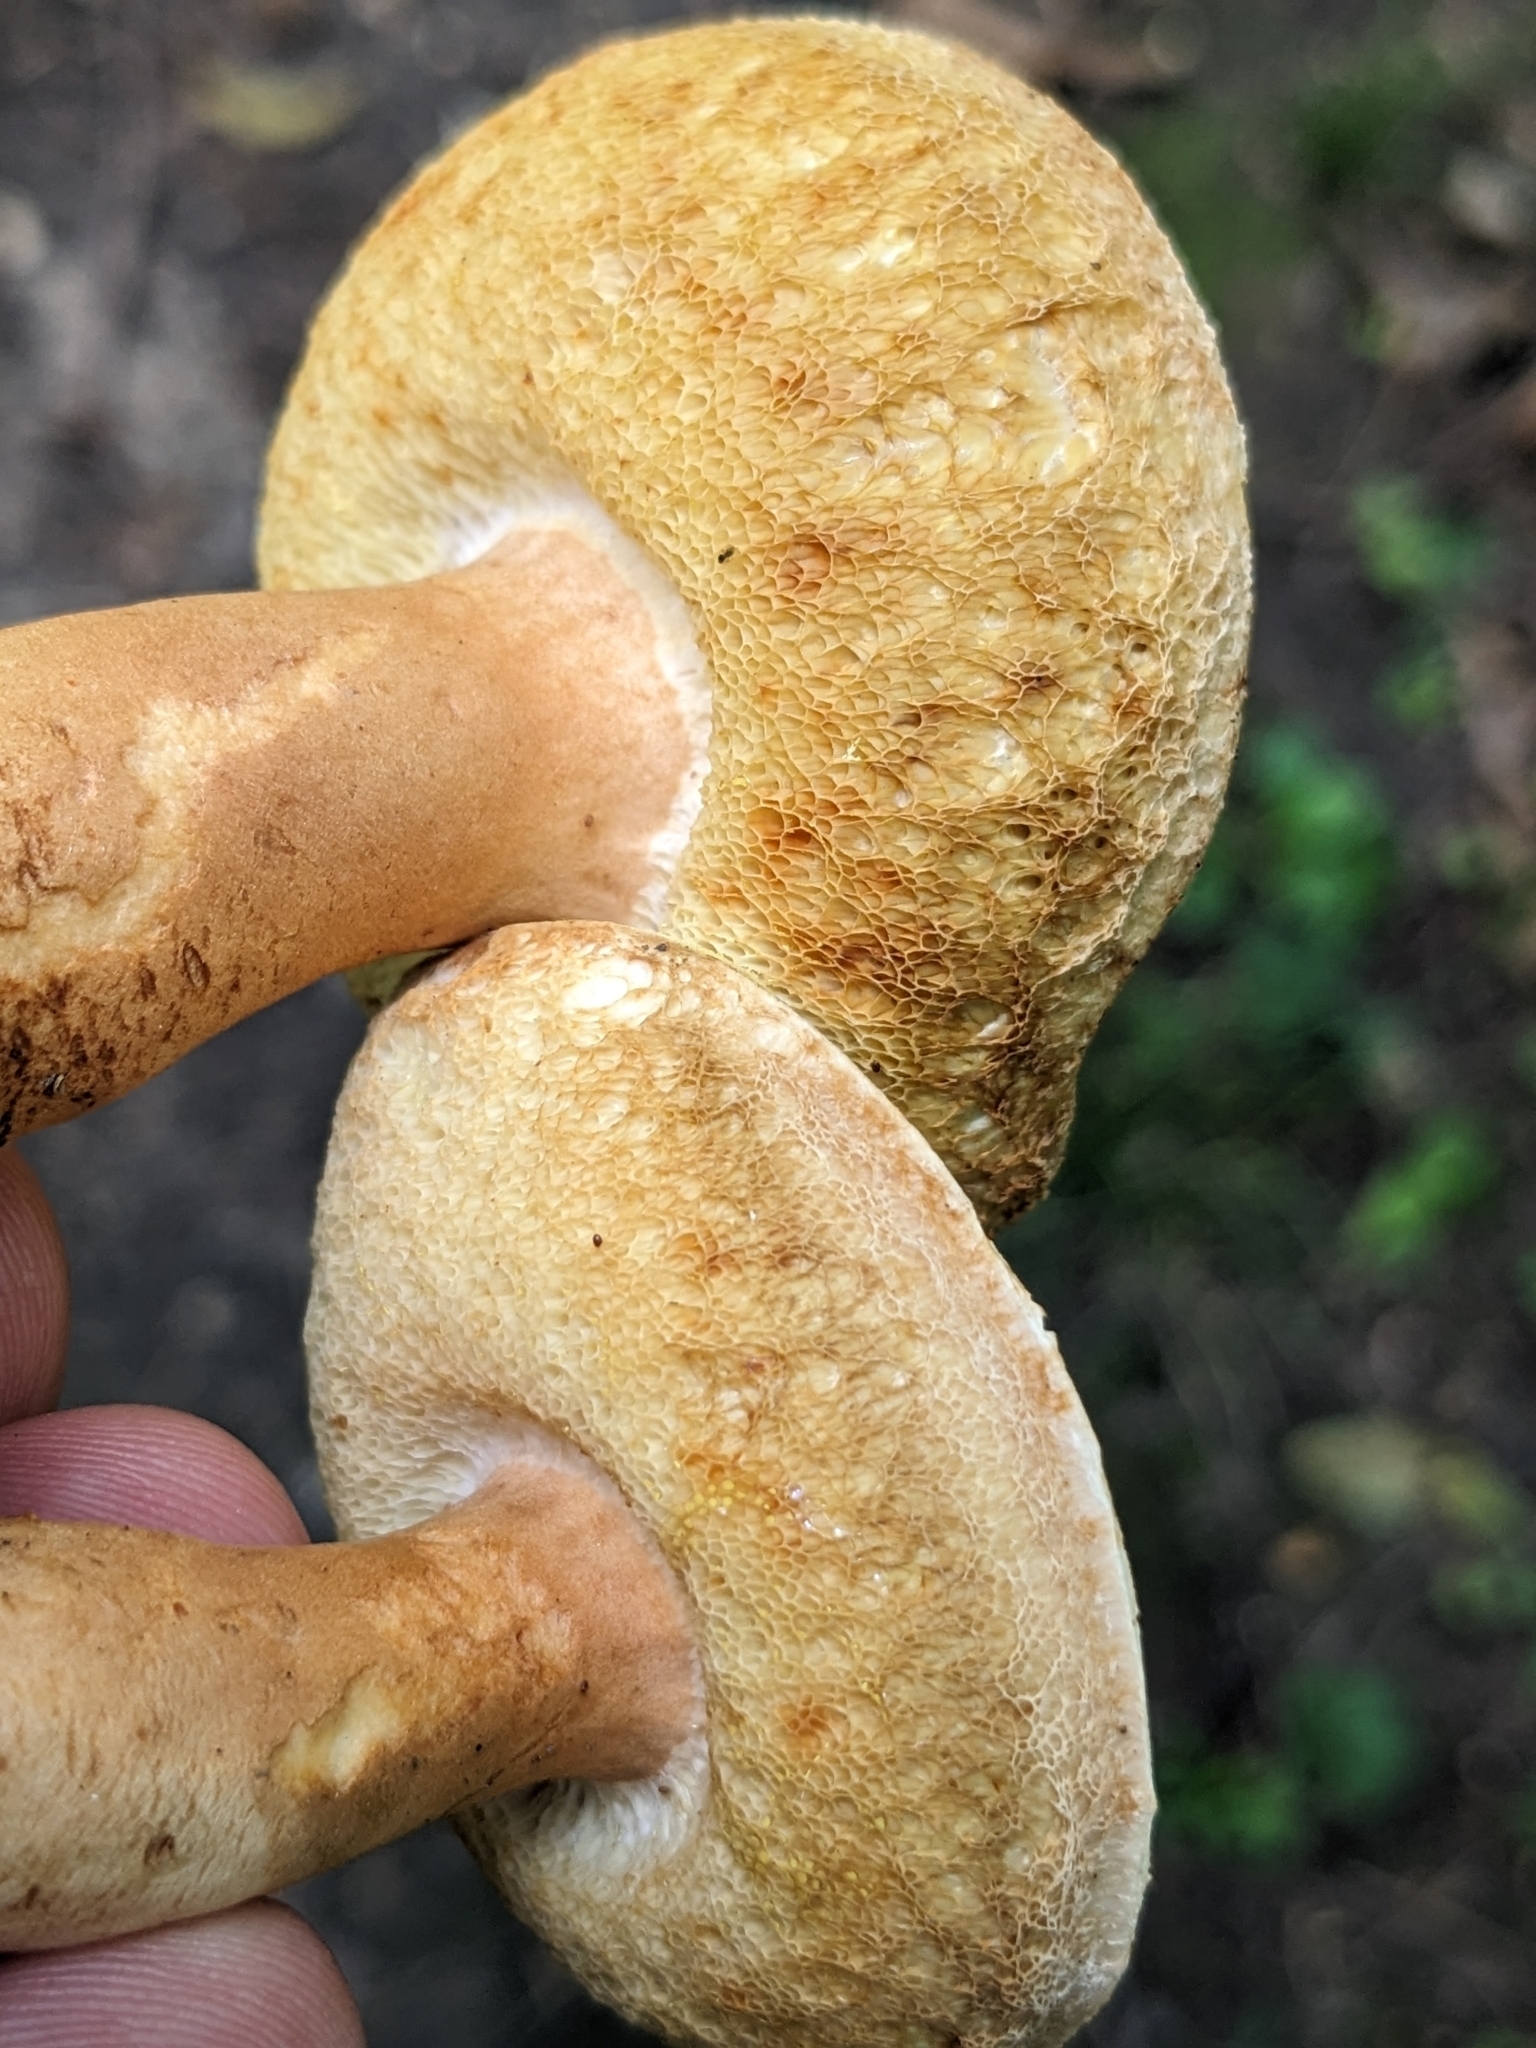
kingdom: Fungi
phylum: Basidiomycota
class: Agaricomycetes
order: Boletales
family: Gyroporaceae
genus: Gyroporus
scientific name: Gyroporus borealis
